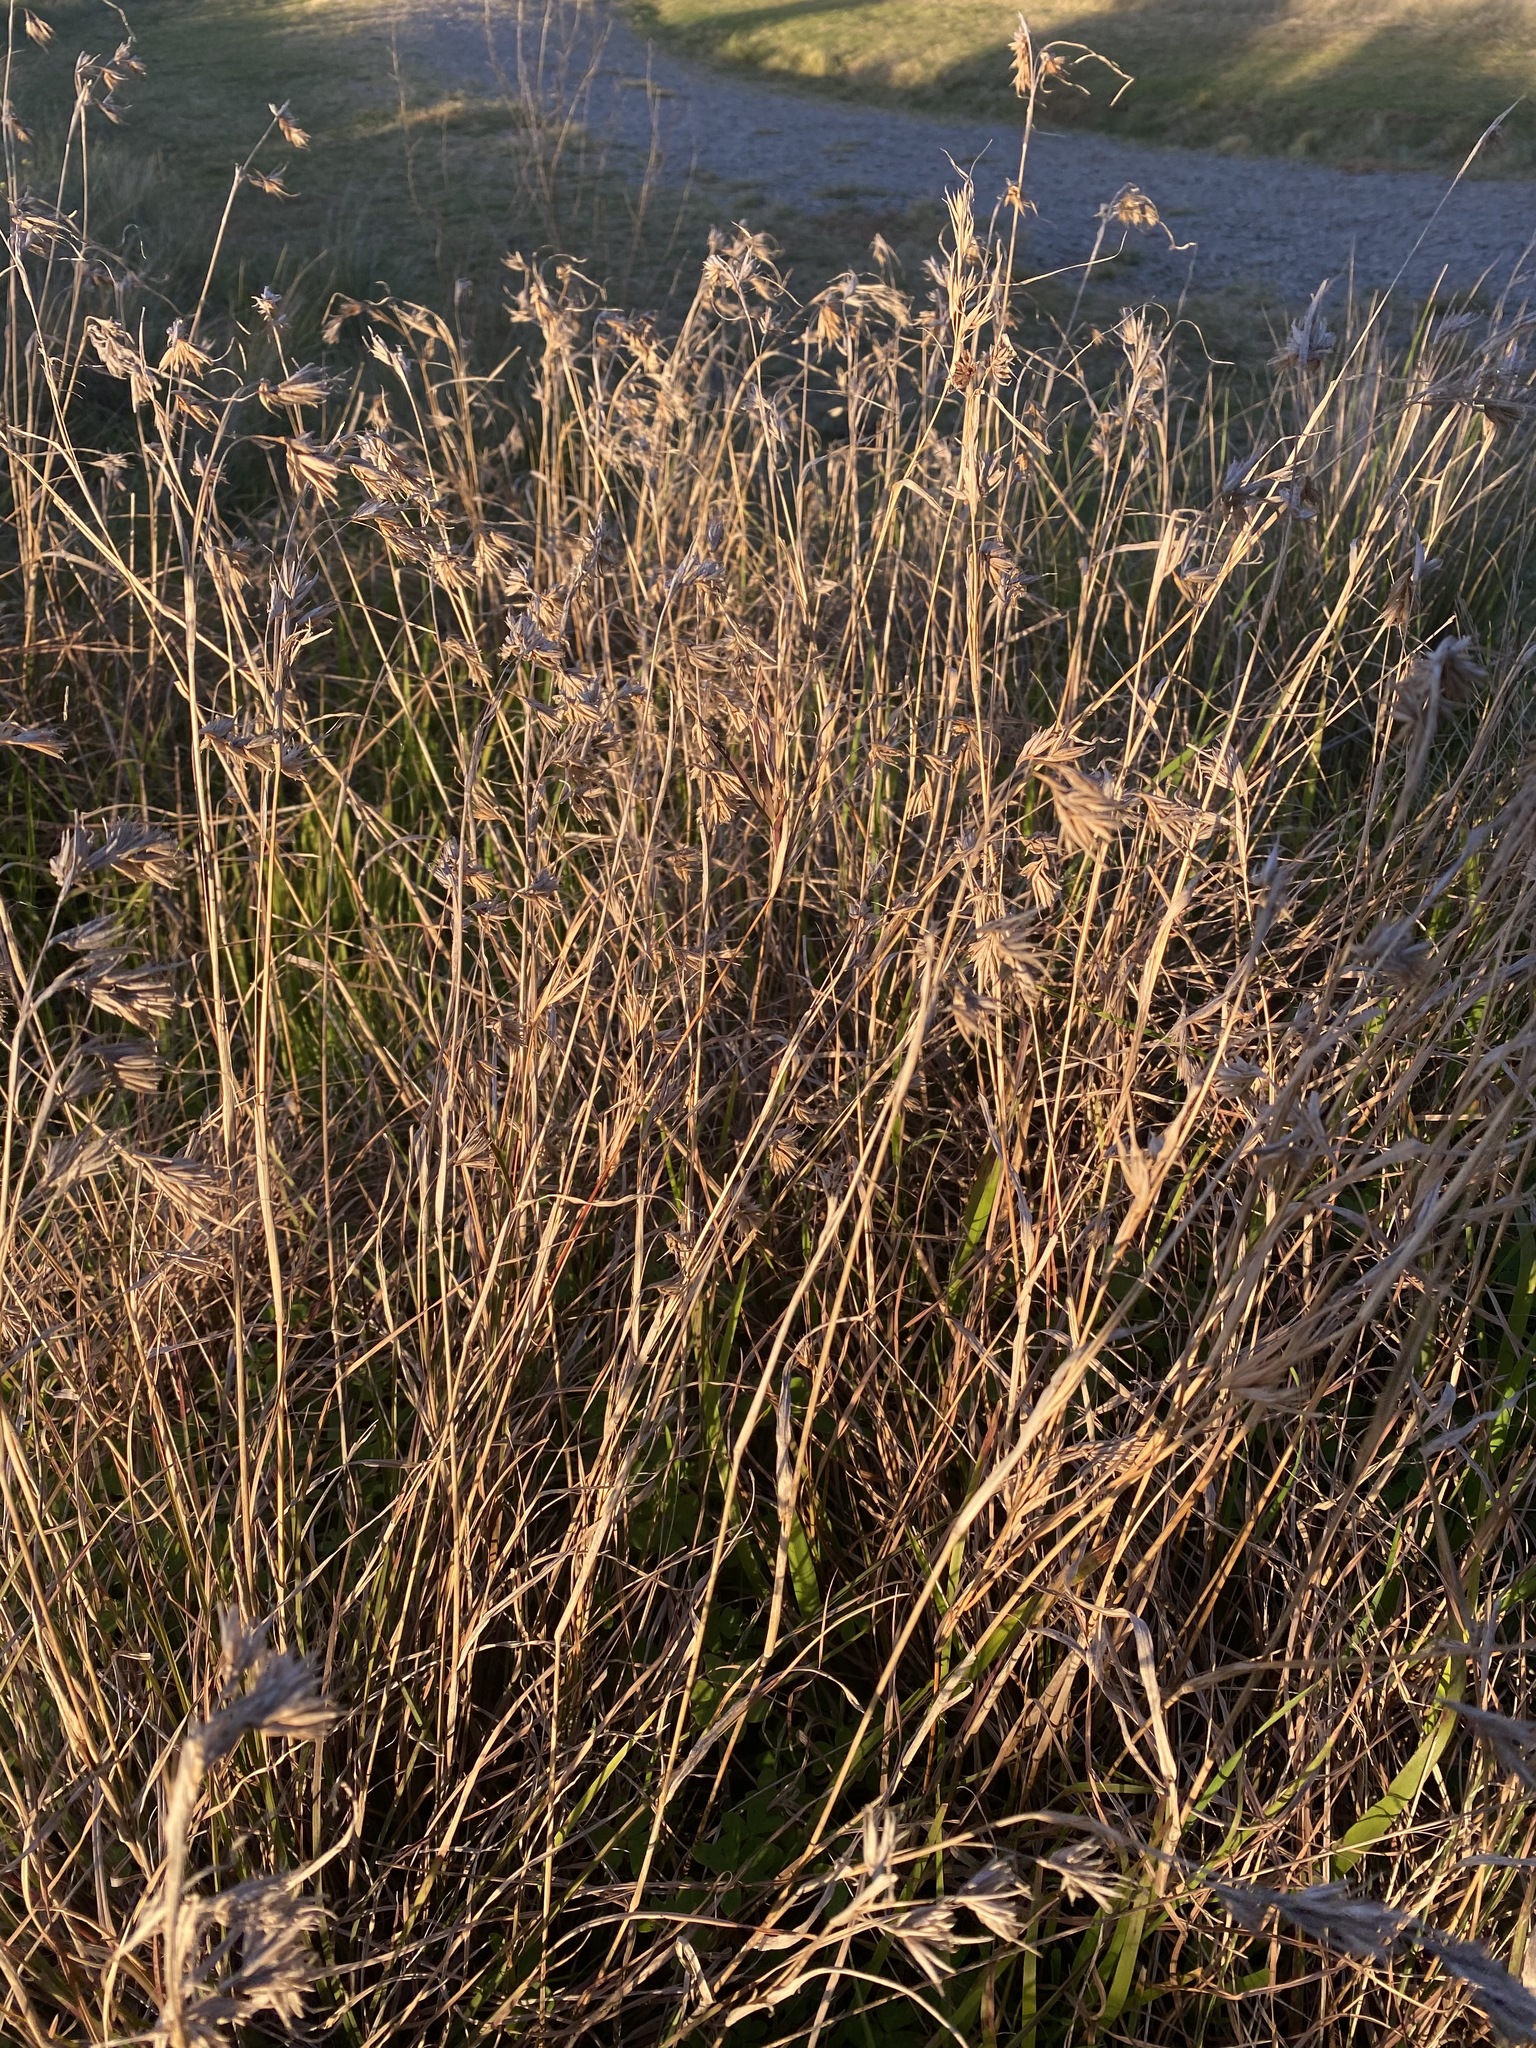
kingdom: Plantae
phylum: Tracheophyta
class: Liliopsida
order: Poales
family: Poaceae
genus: Themeda
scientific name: Themeda triandra
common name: Kangaroo grass
